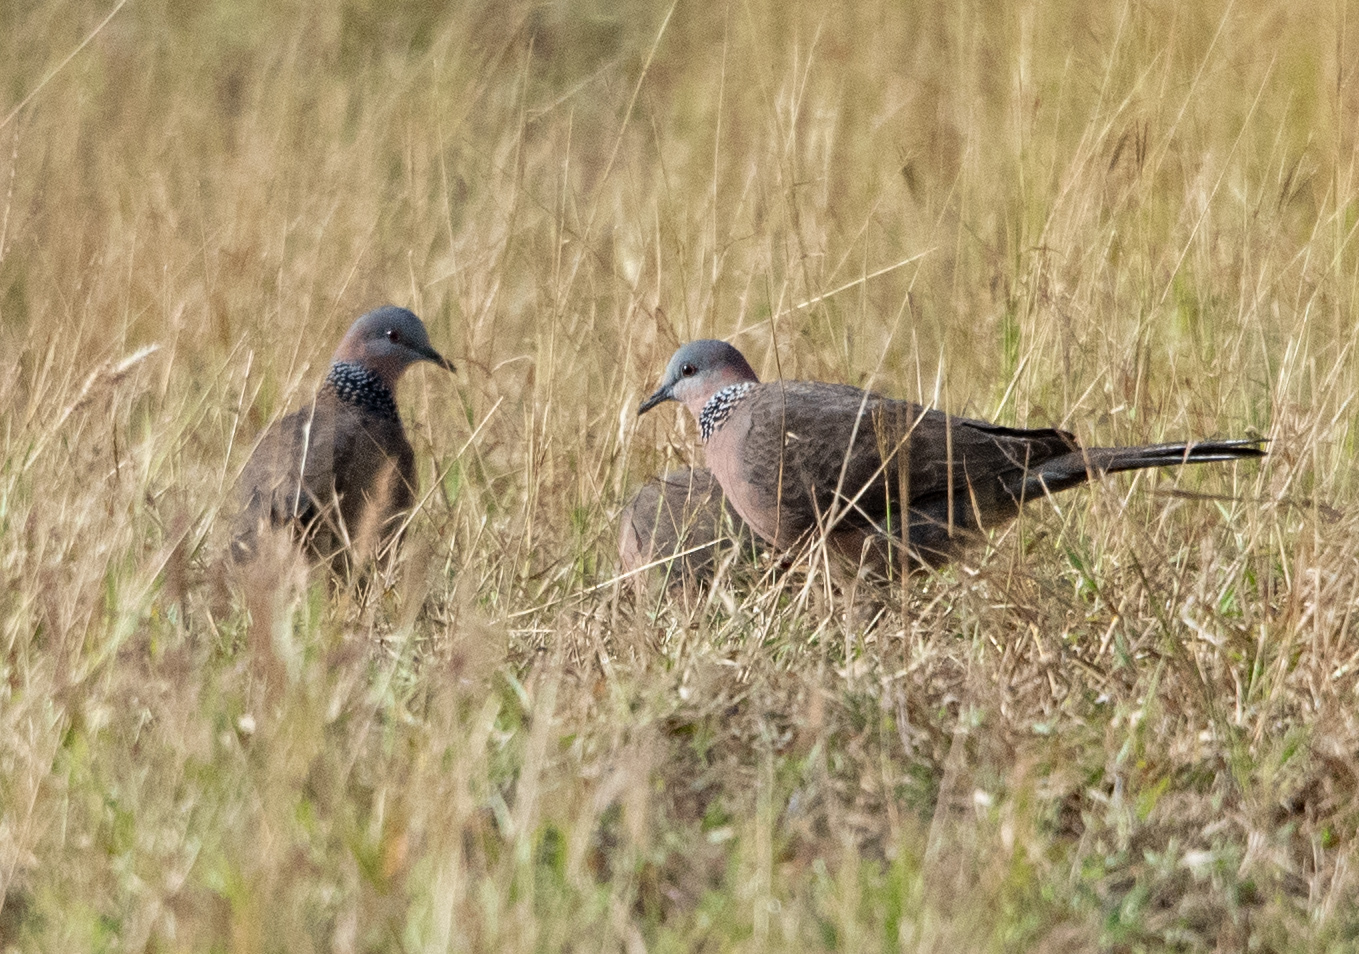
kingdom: Animalia
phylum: Chordata
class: Aves
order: Columbiformes
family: Columbidae
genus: Spilopelia
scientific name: Spilopelia chinensis
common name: Spotted dove
